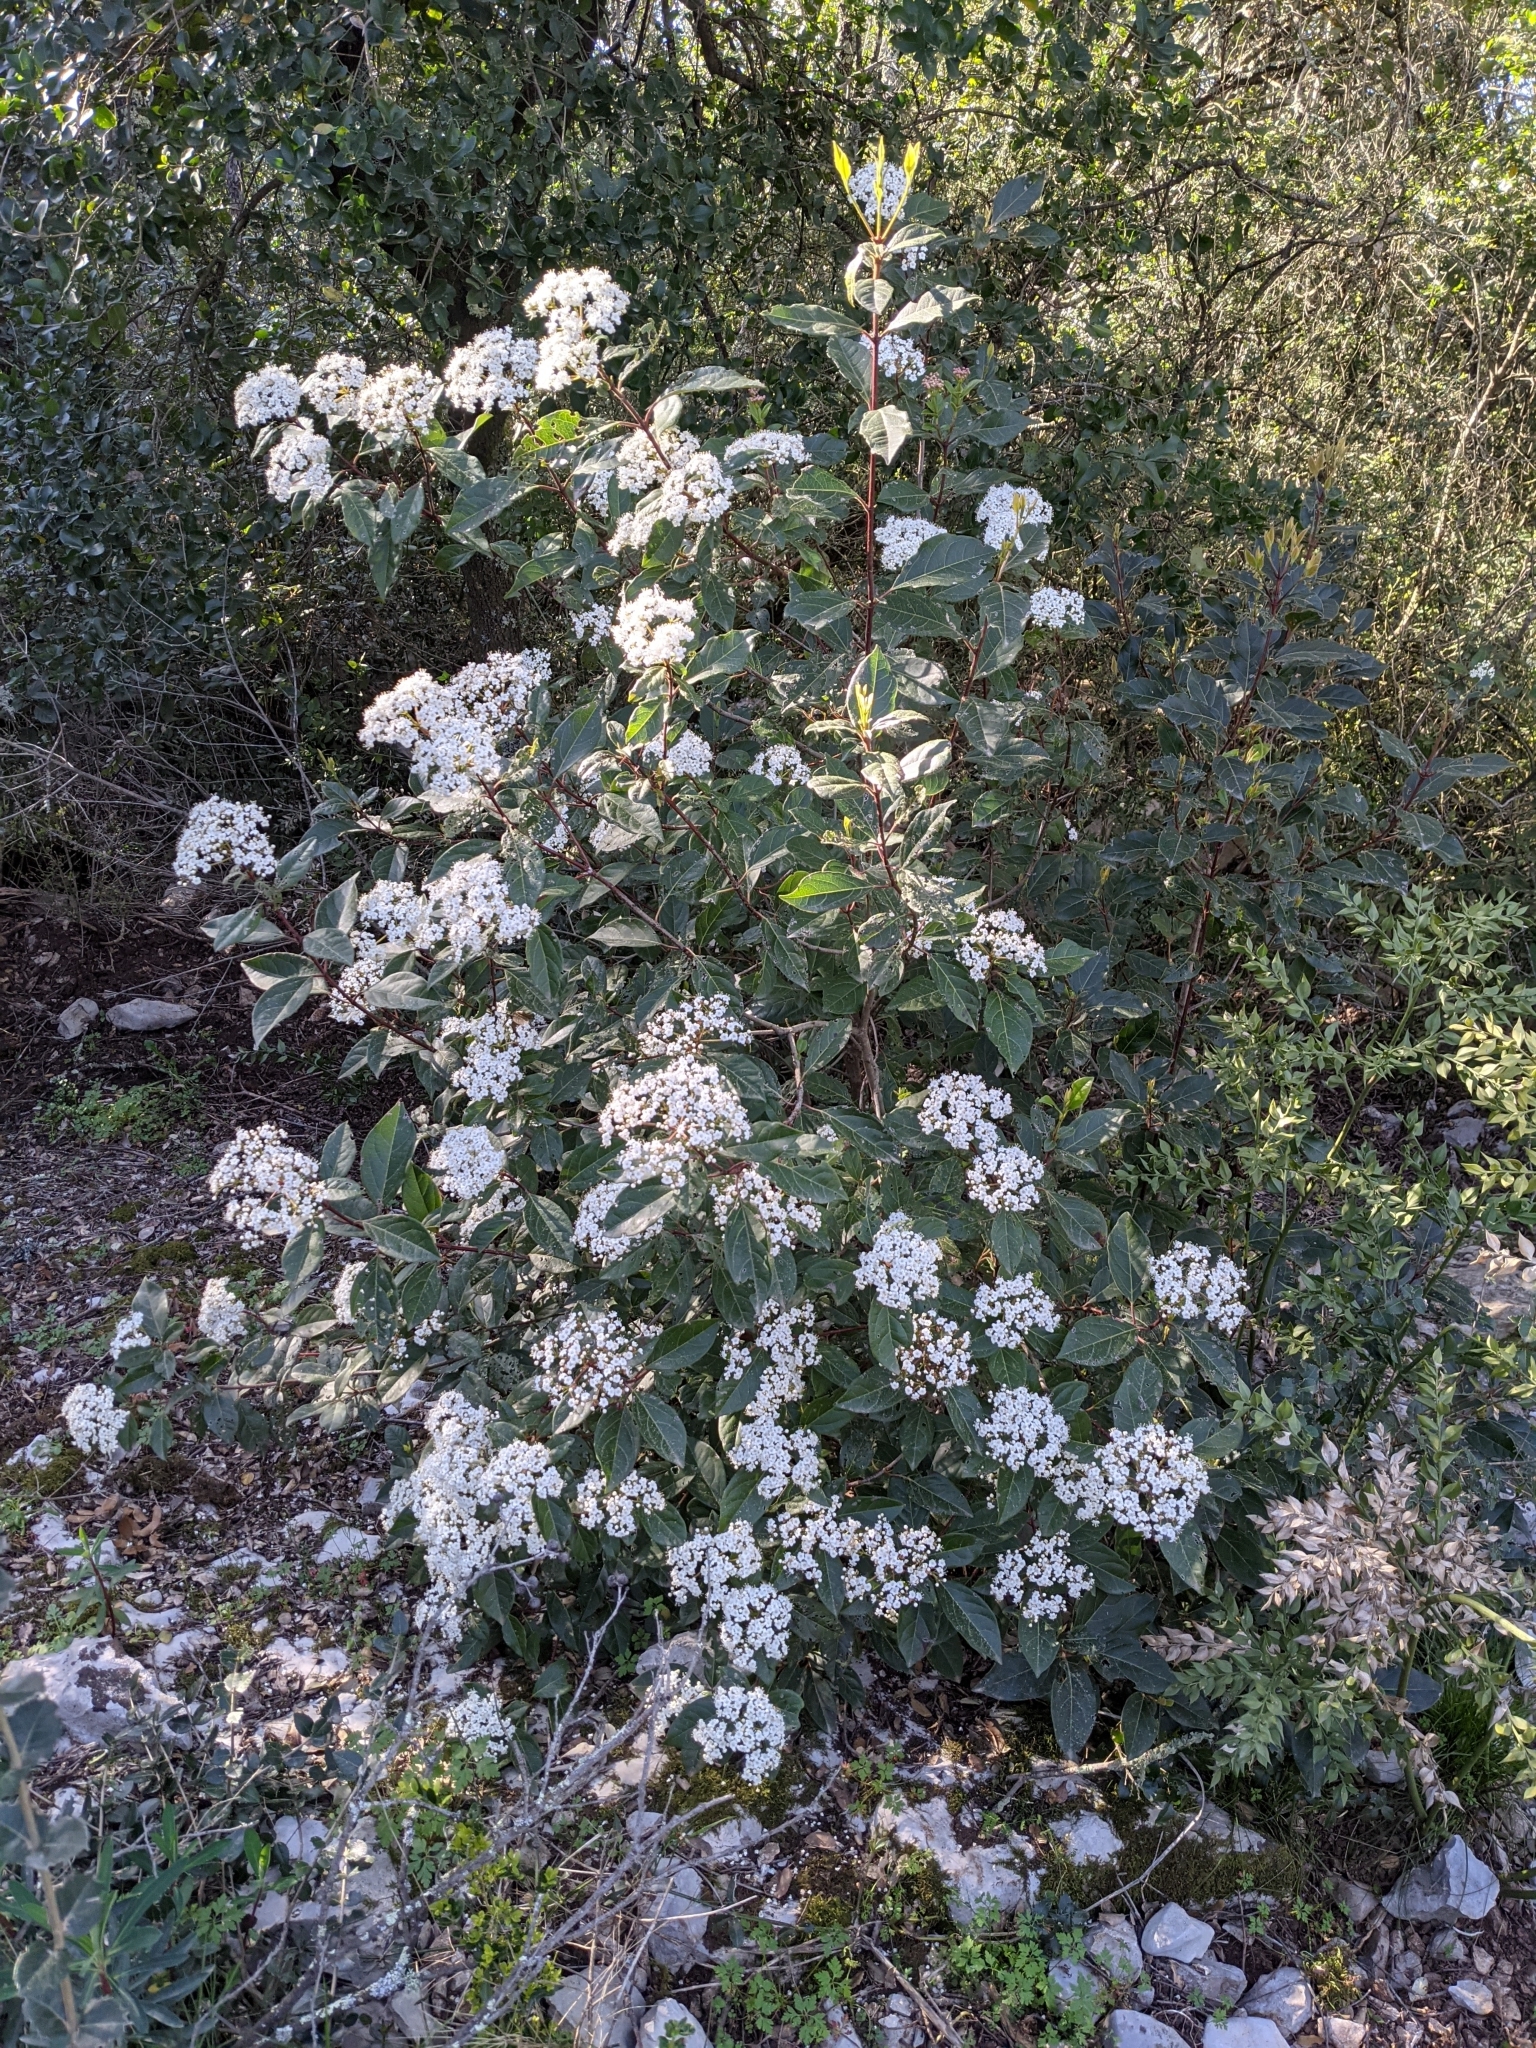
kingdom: Plantae
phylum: Tracheophyta
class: Magnoliopsida
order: Dipsacales
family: Viburnaceae
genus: Viburnum
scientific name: Viburnum tinus
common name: Laurustinus
